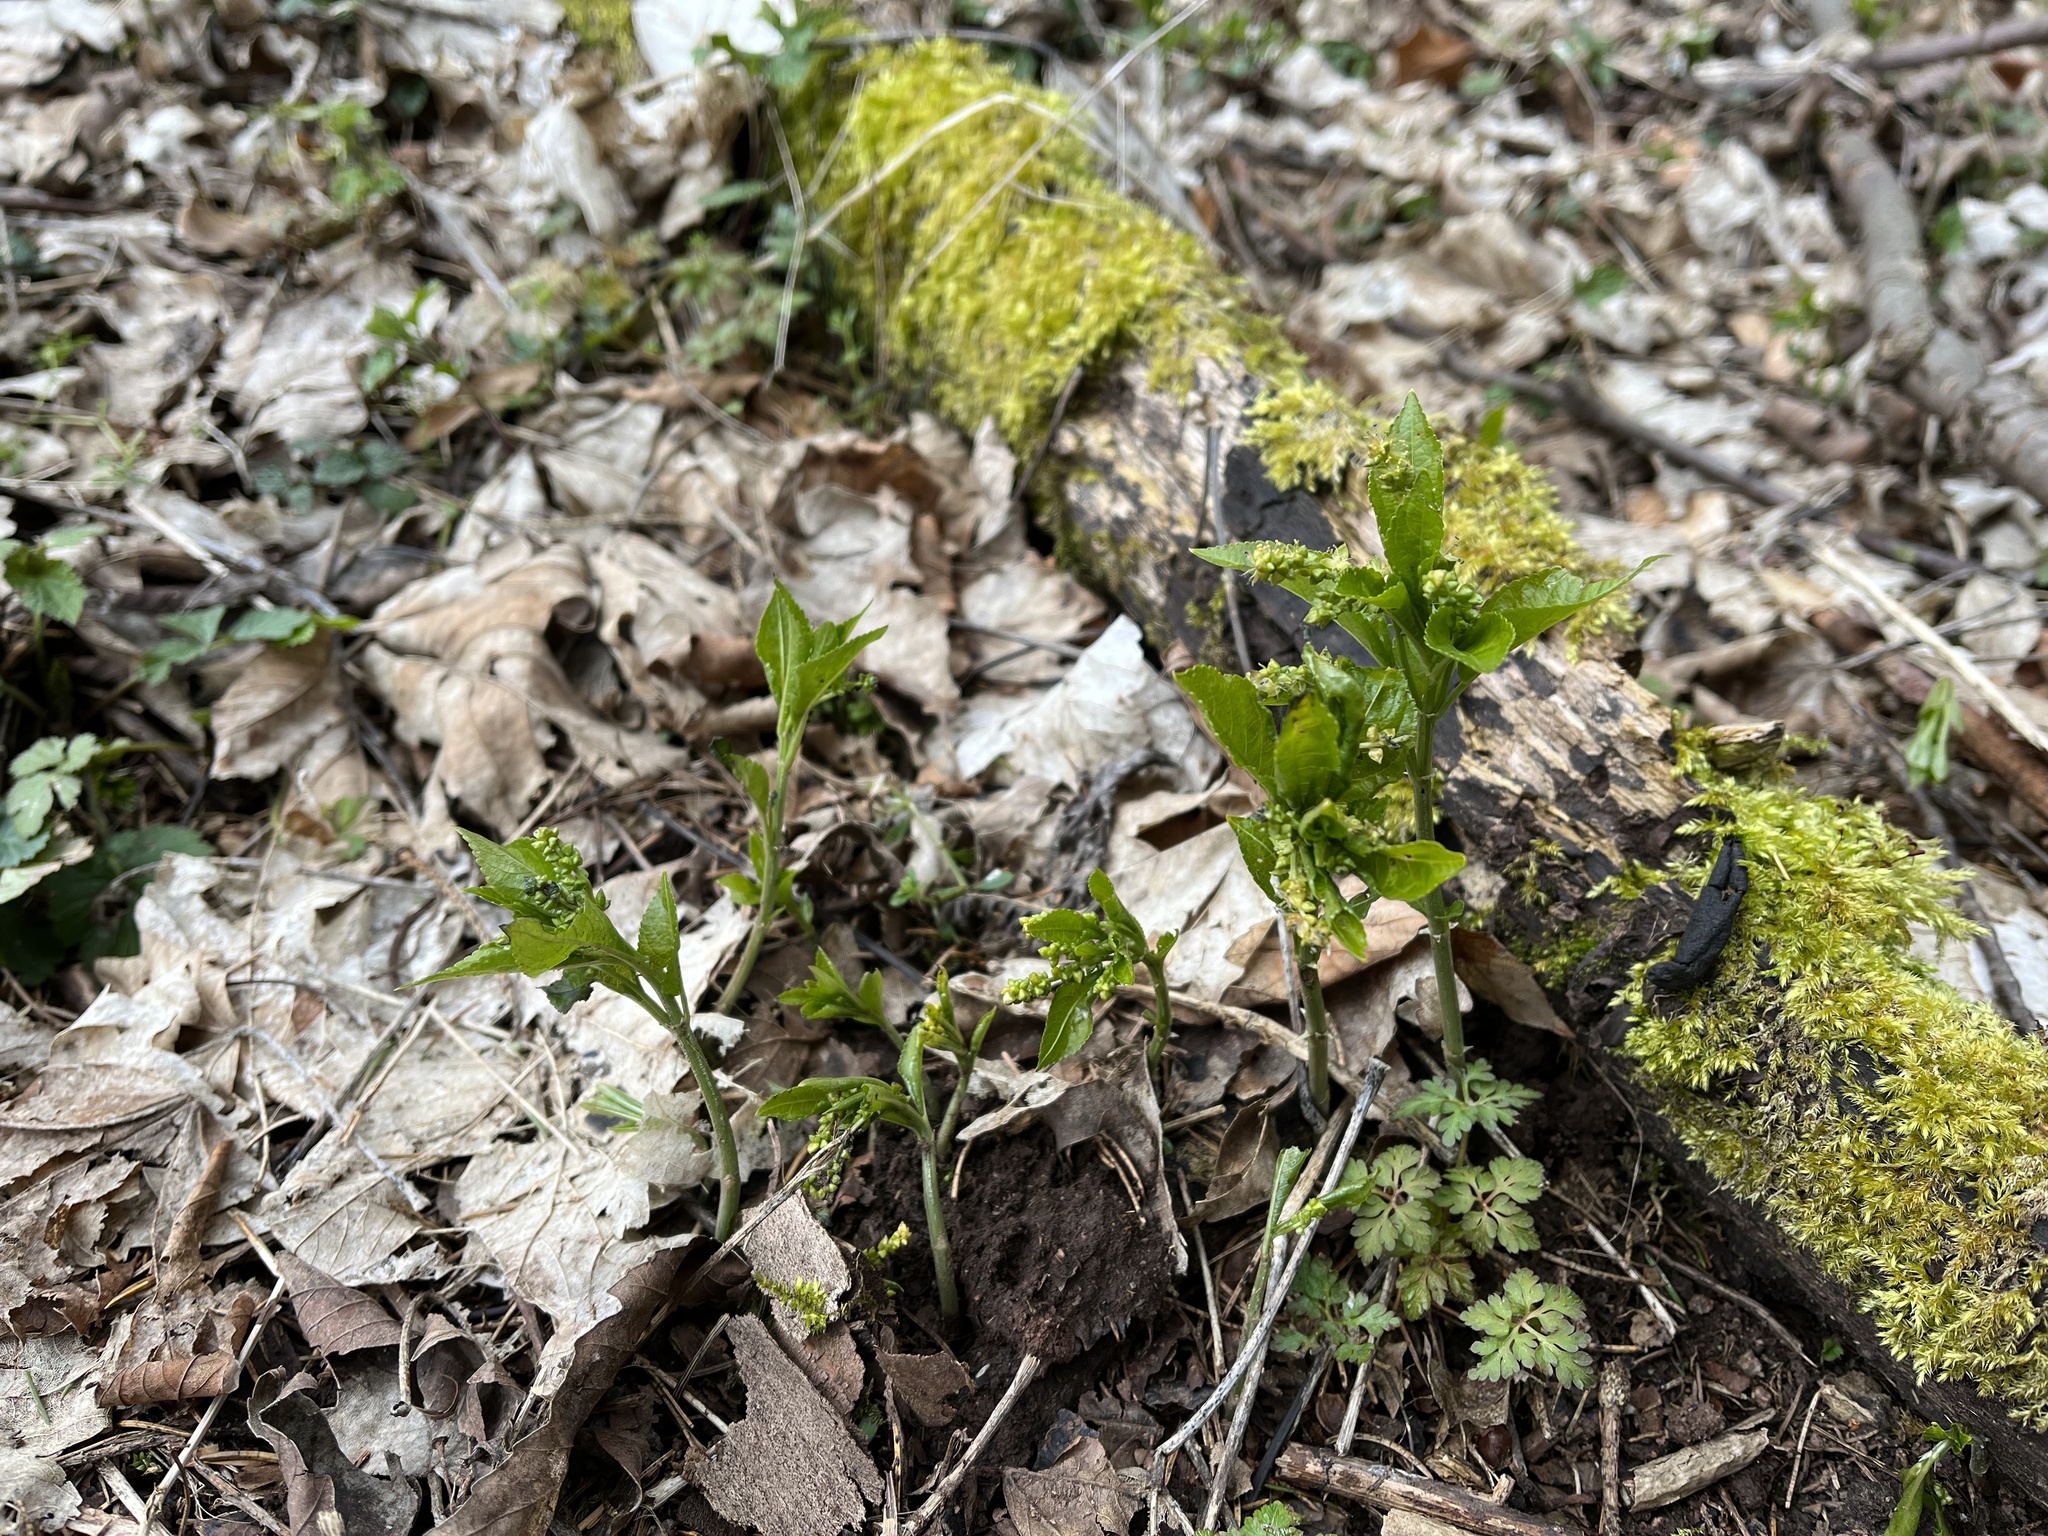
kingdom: Plantae
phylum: Tracheophyta
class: Magnoliopsida
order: Malpighiales
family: Euphorbiaceae
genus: Mercurialis
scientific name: Mercurialis perennis
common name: Dog mercury
